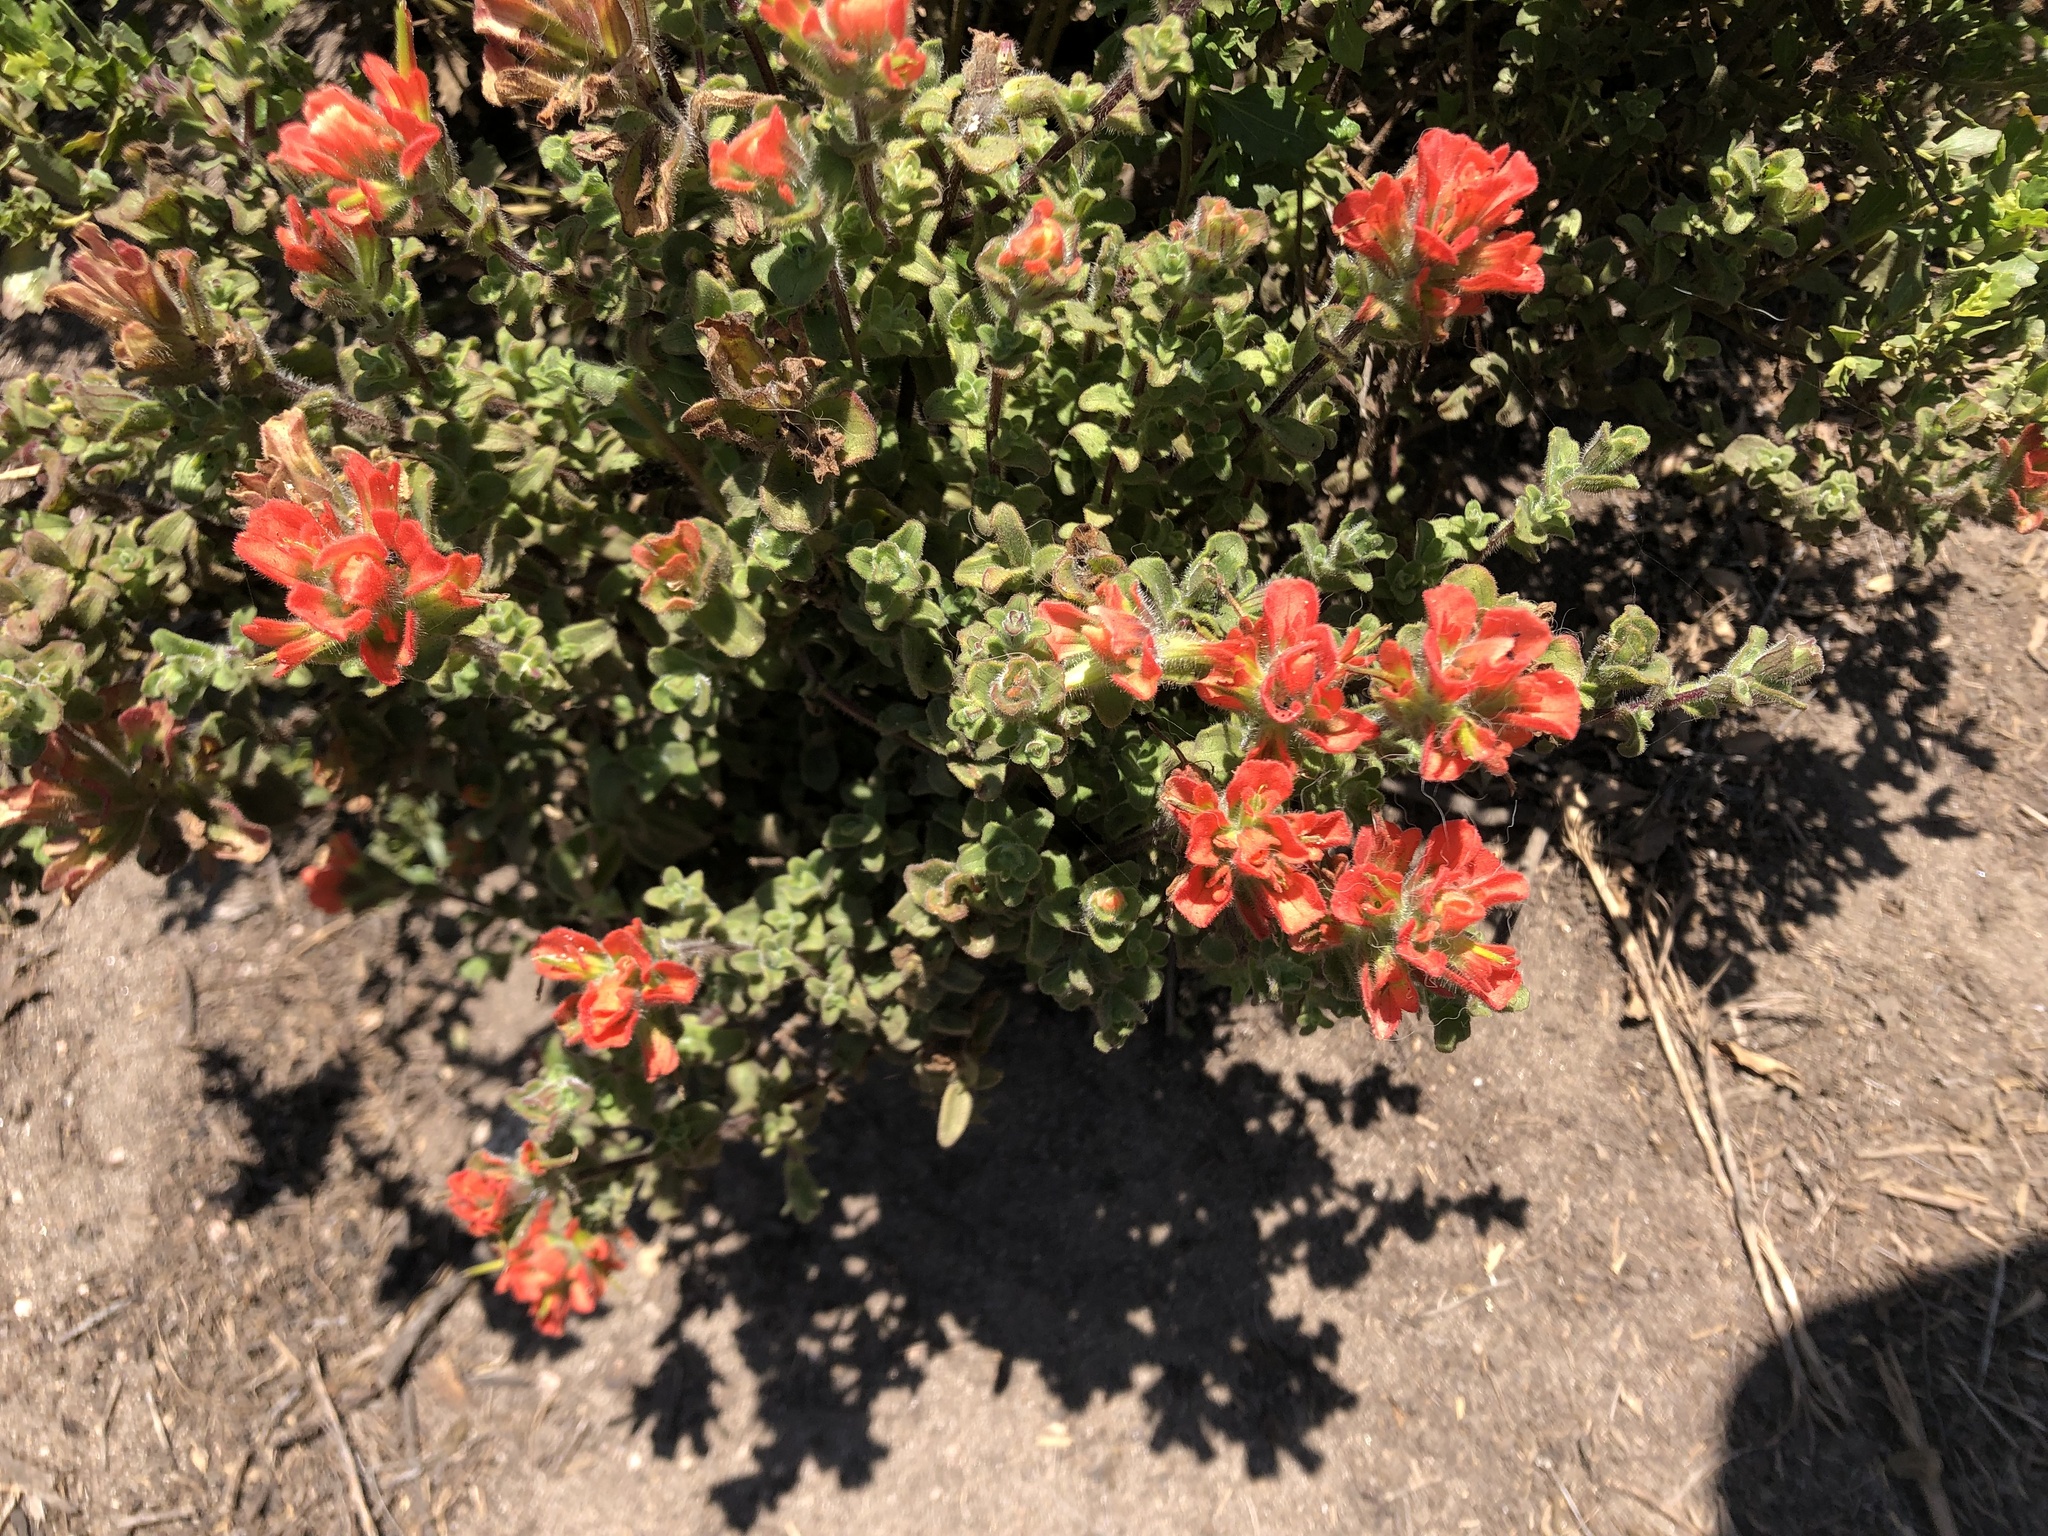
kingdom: Plantae
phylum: Tracheophyta
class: Magnoliopsida
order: Lamiales
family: Orobanchaceae
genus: Castilleja
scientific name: Castilleja latifolia
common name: Monterey indian paintbrush
